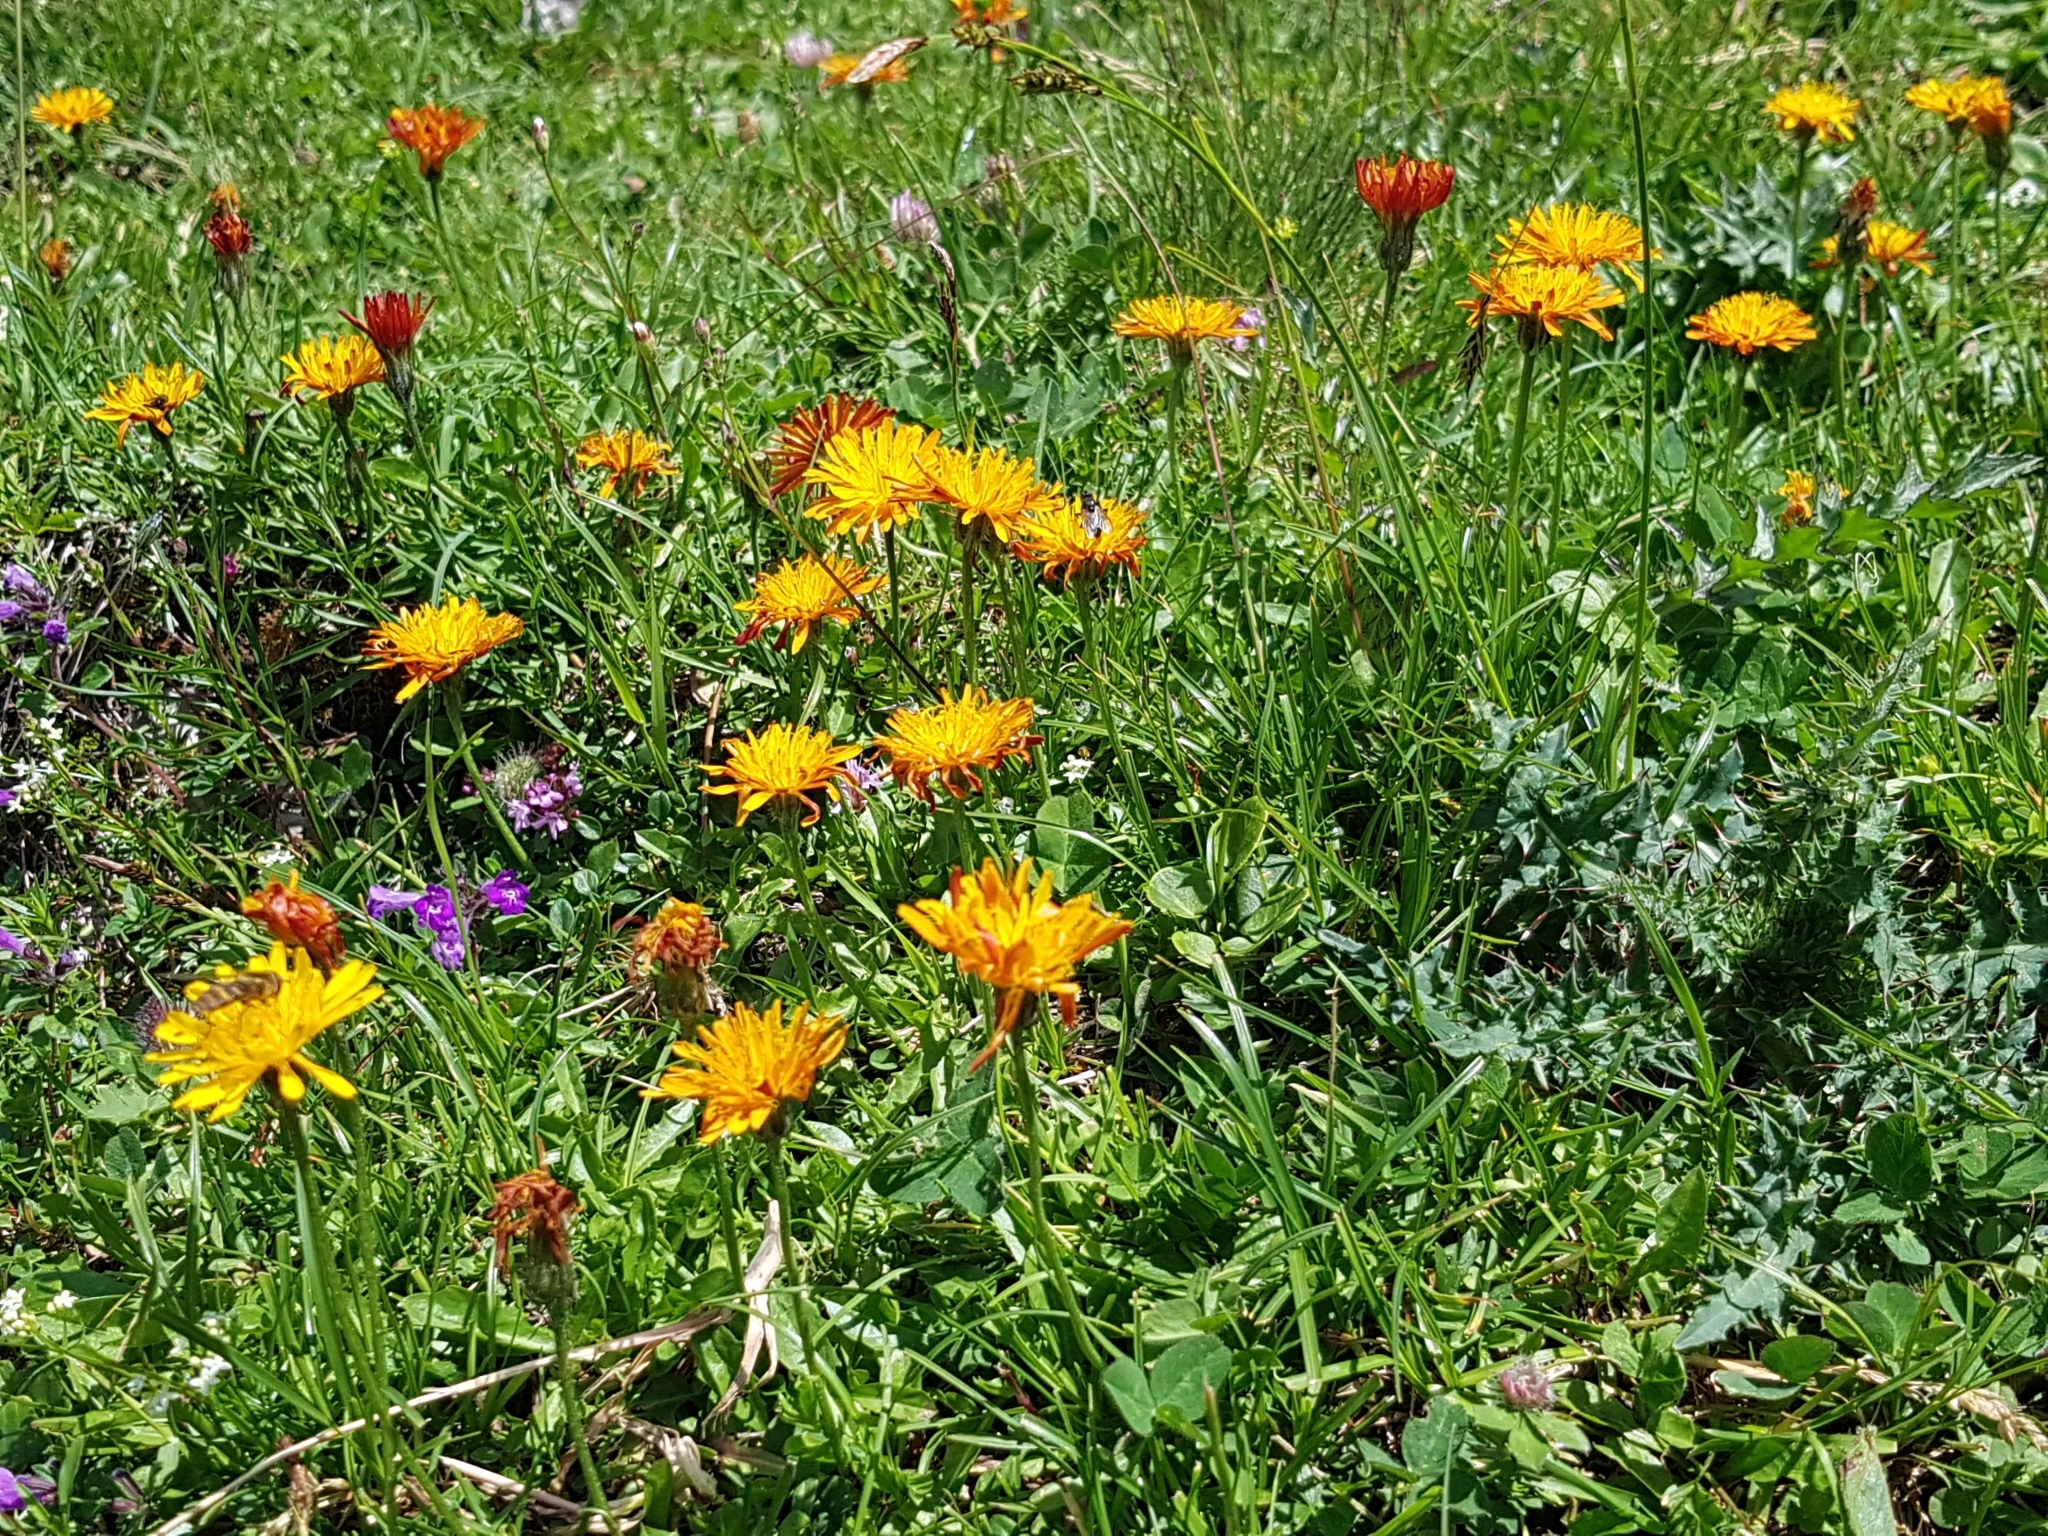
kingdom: Plantae
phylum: Tracheophyta
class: Magnoliopsida
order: Asterales
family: Asteraceae
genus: Crepis
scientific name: Crepis aurea
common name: Golden hawk's-beard
